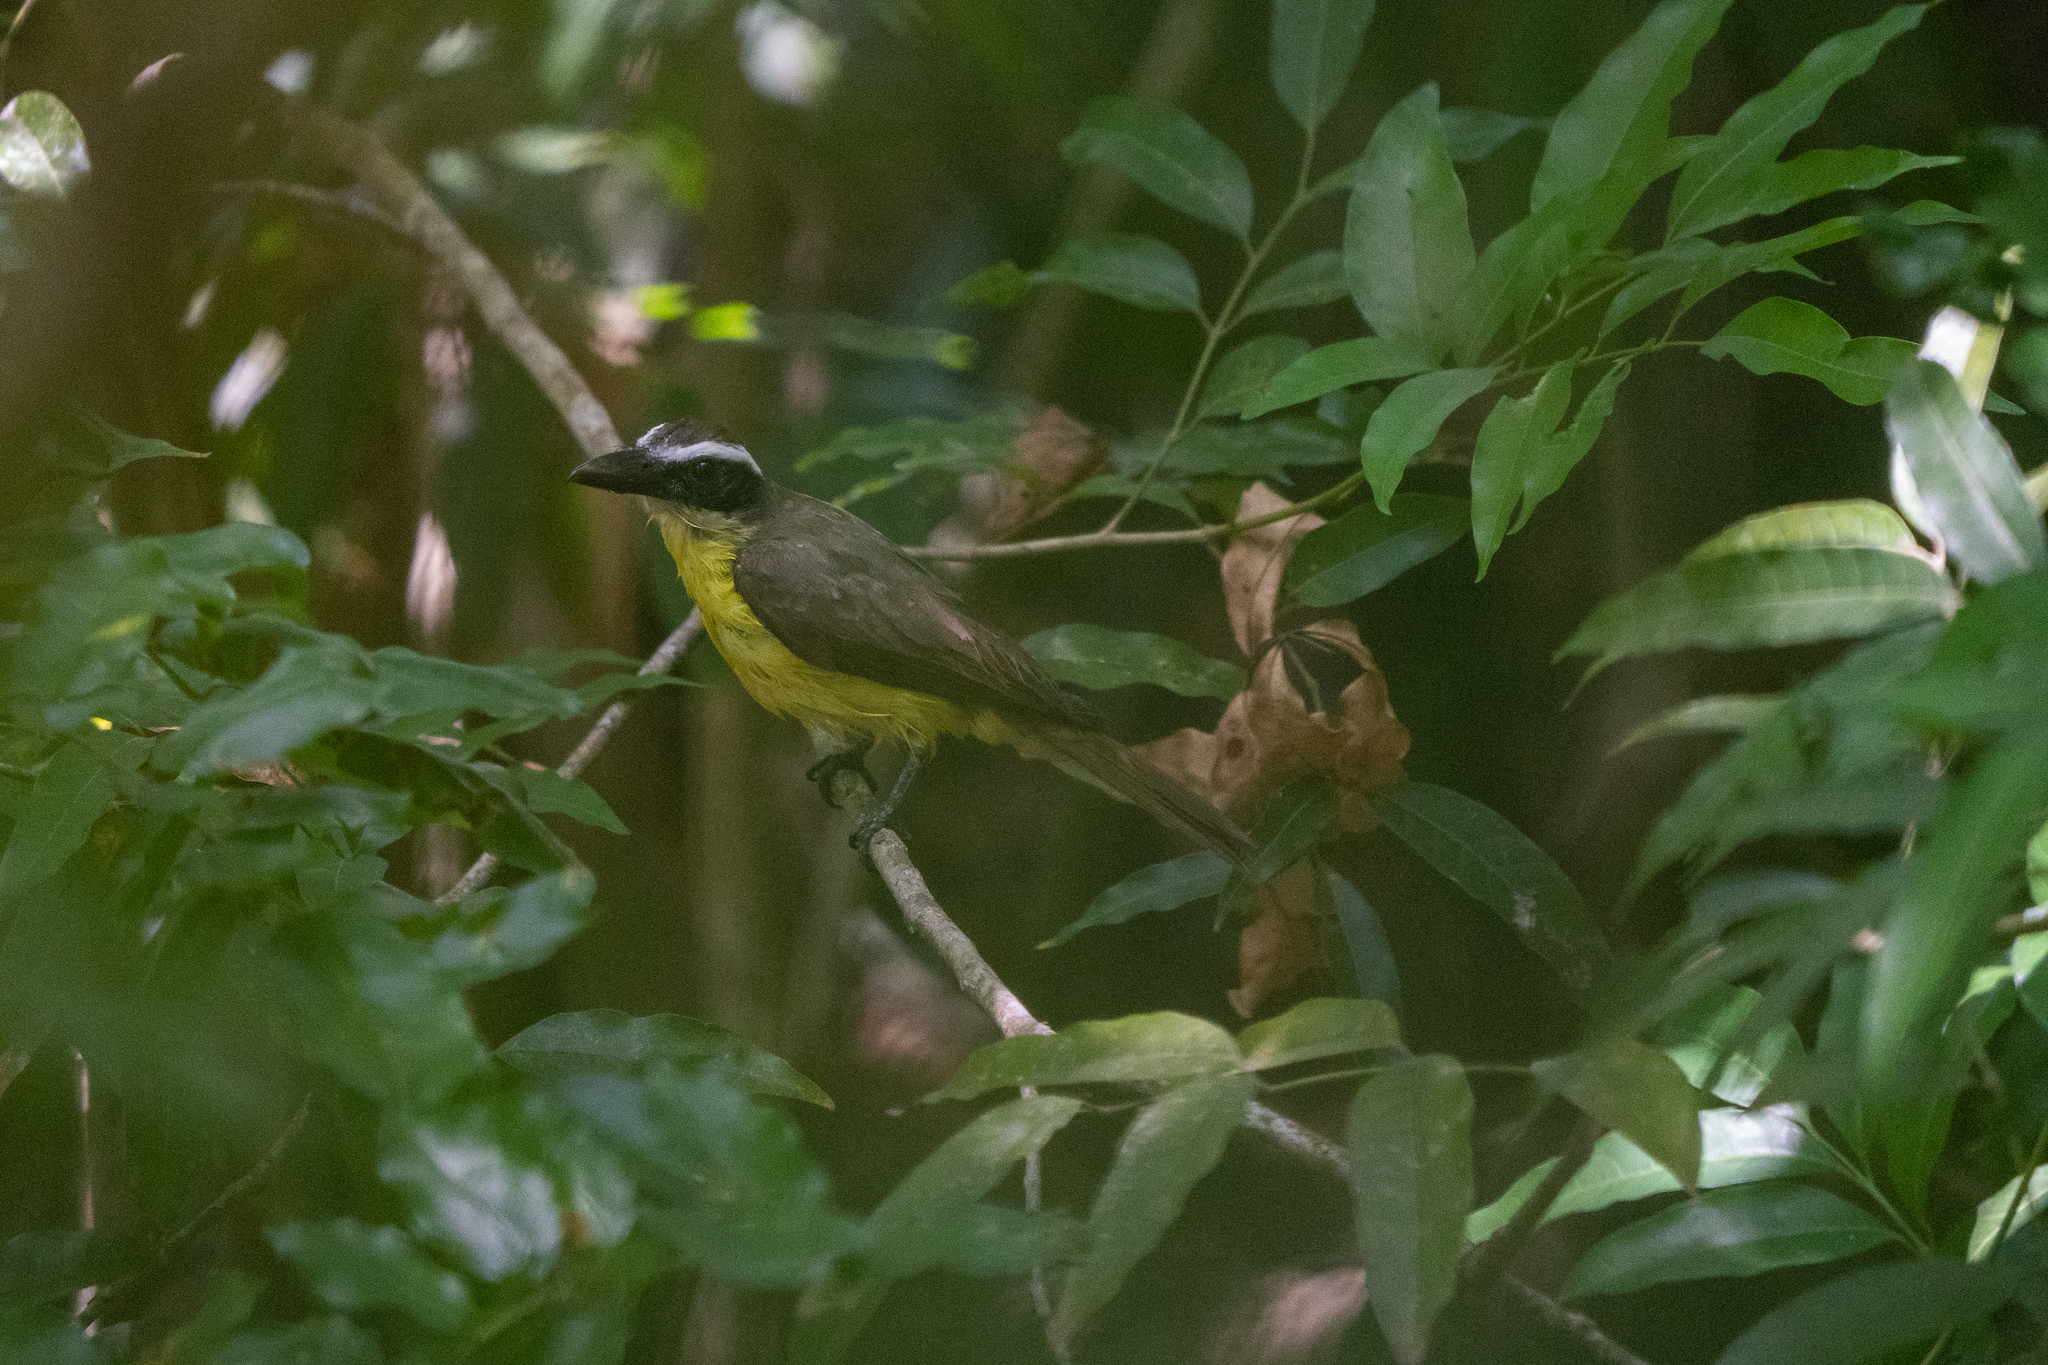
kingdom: Animalia
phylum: Chordata
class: Aves
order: Passeriformes
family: Tyrannidae
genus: Megarynchus
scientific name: Megarynchus pitangua
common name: Boat-billed flycatcher
